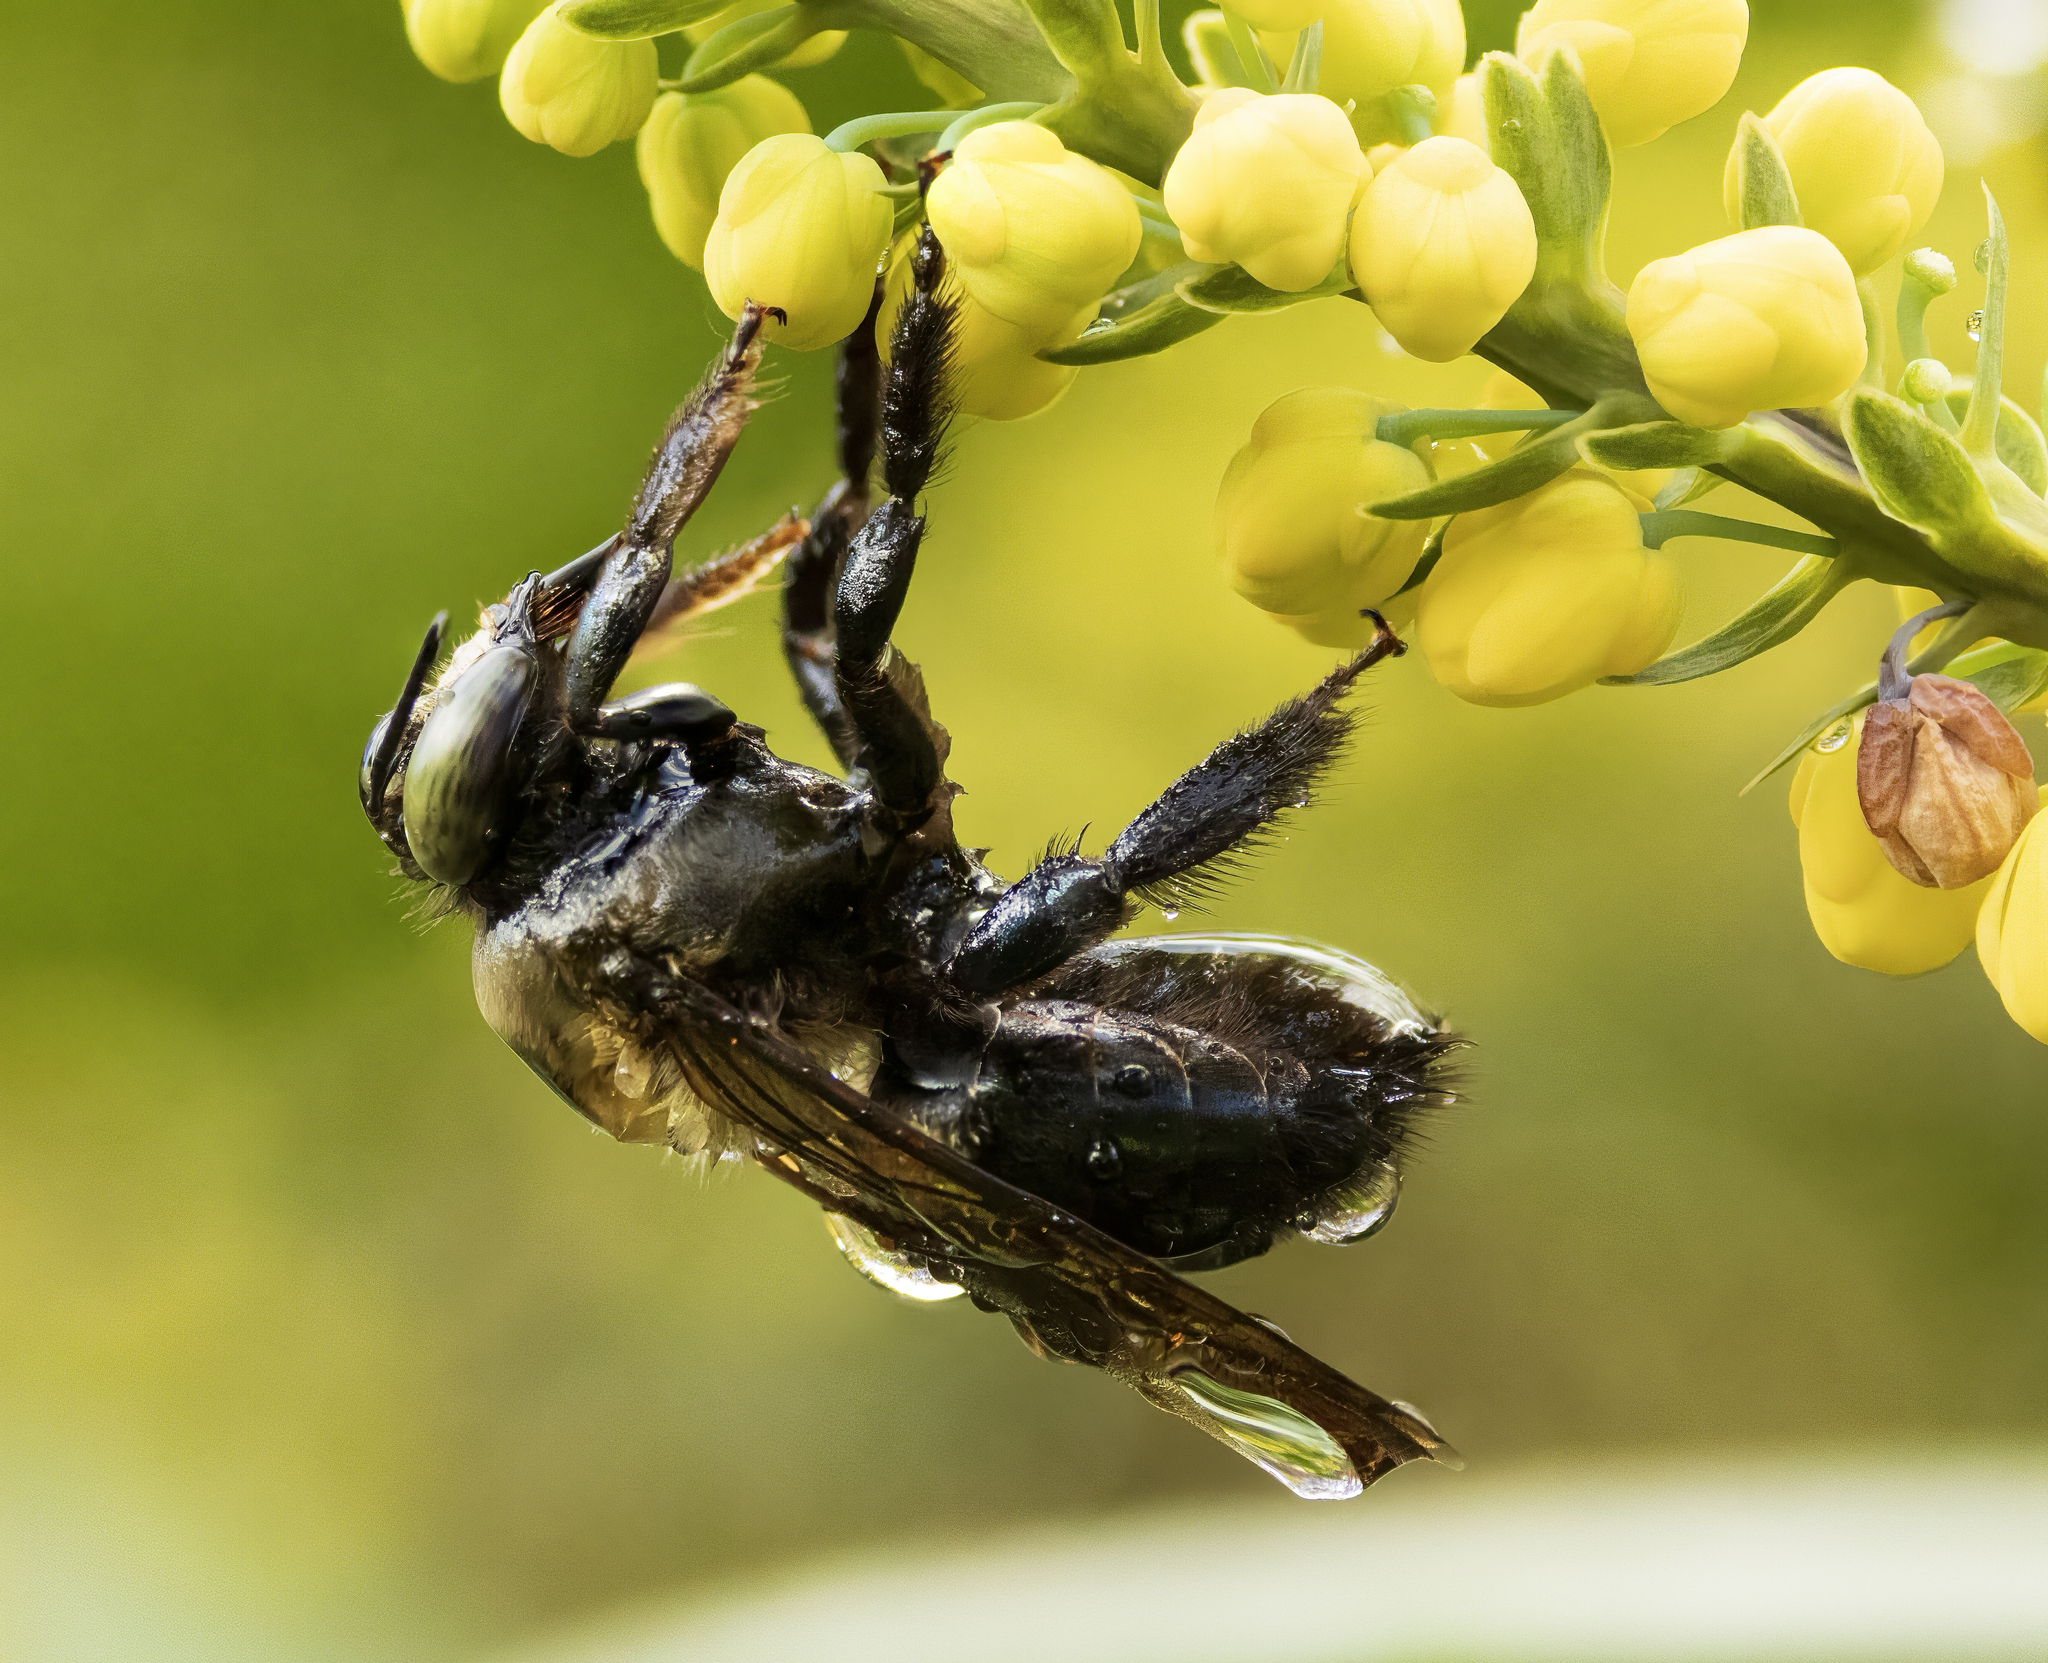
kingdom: Animalia
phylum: Arthropoda
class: Insecta
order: Hymenoptera
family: Apidae
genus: Xylocopa
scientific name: Xylocopa virginica
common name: Carpenter bee
